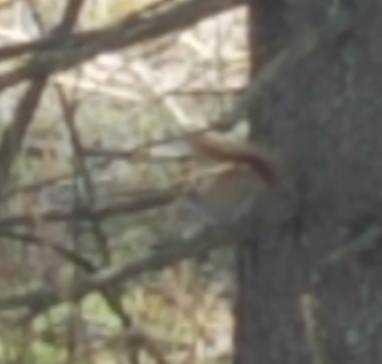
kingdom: Animalia
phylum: Chordata
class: Mammalia
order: Rodentia
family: Sciuridae
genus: Tamiasciurus
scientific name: Tamiasciurus hudsonicus
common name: Red squirrel
